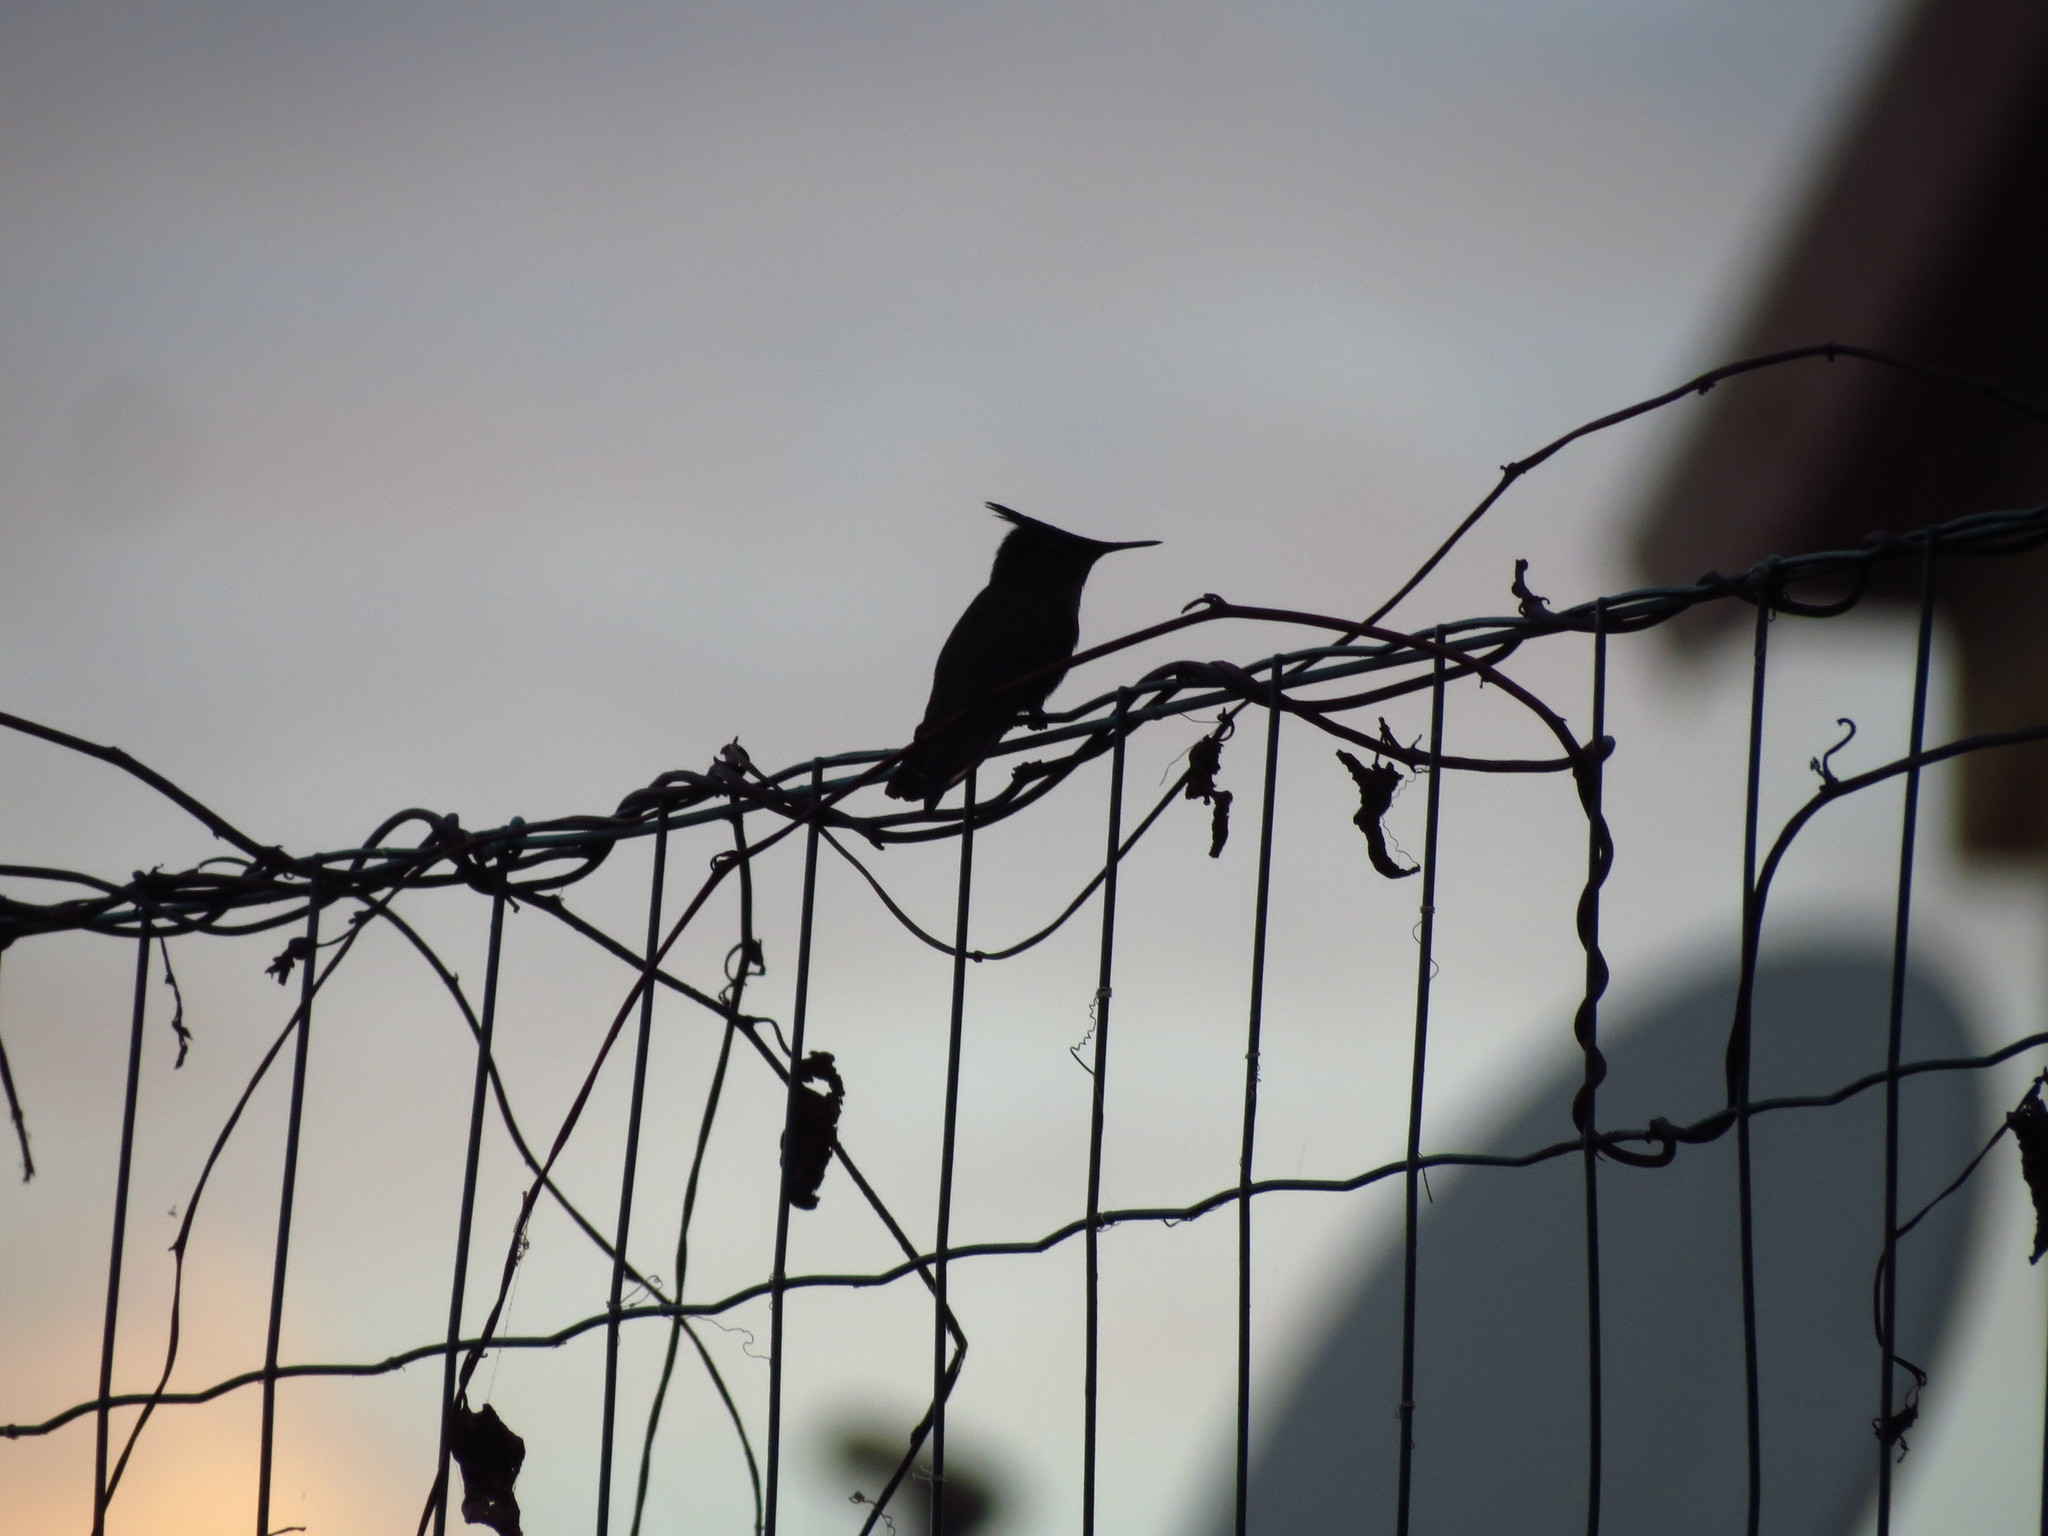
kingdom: Animalia
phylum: Chordata
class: Aves
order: Apodiformes
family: Trochilidae
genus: Orthorhyncus
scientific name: Orthorhyncus cristatus
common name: Antillean crested hummingbird
